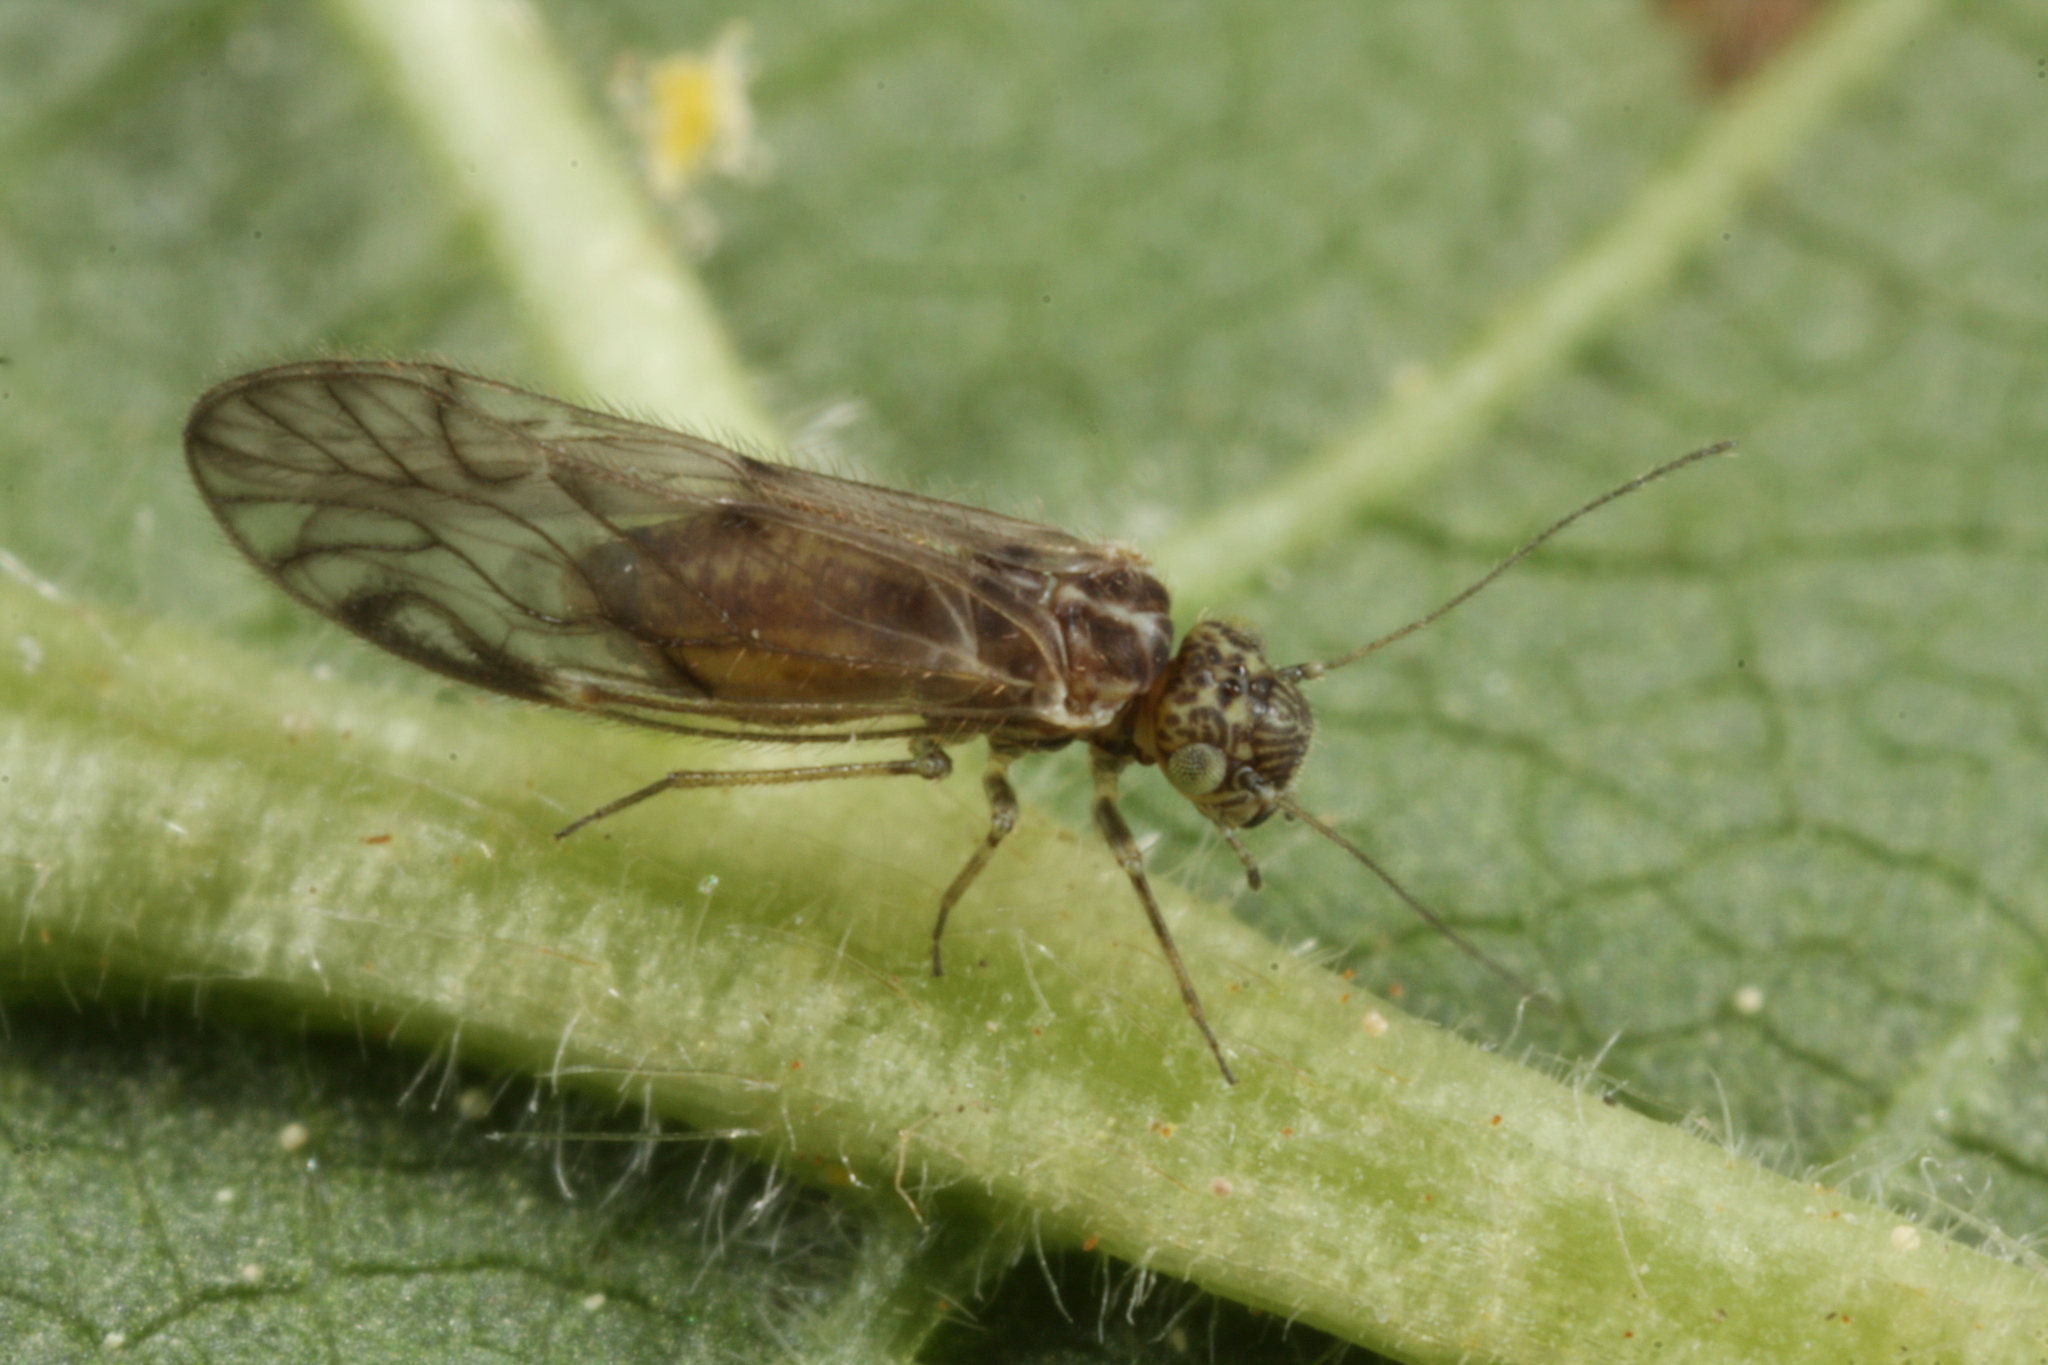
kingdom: Animalia
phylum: Arthropoda
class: Insecta
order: Psocodea
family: Philotarsidae
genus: Philotarsus
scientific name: Philotarsus parviceps
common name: Bark louse
